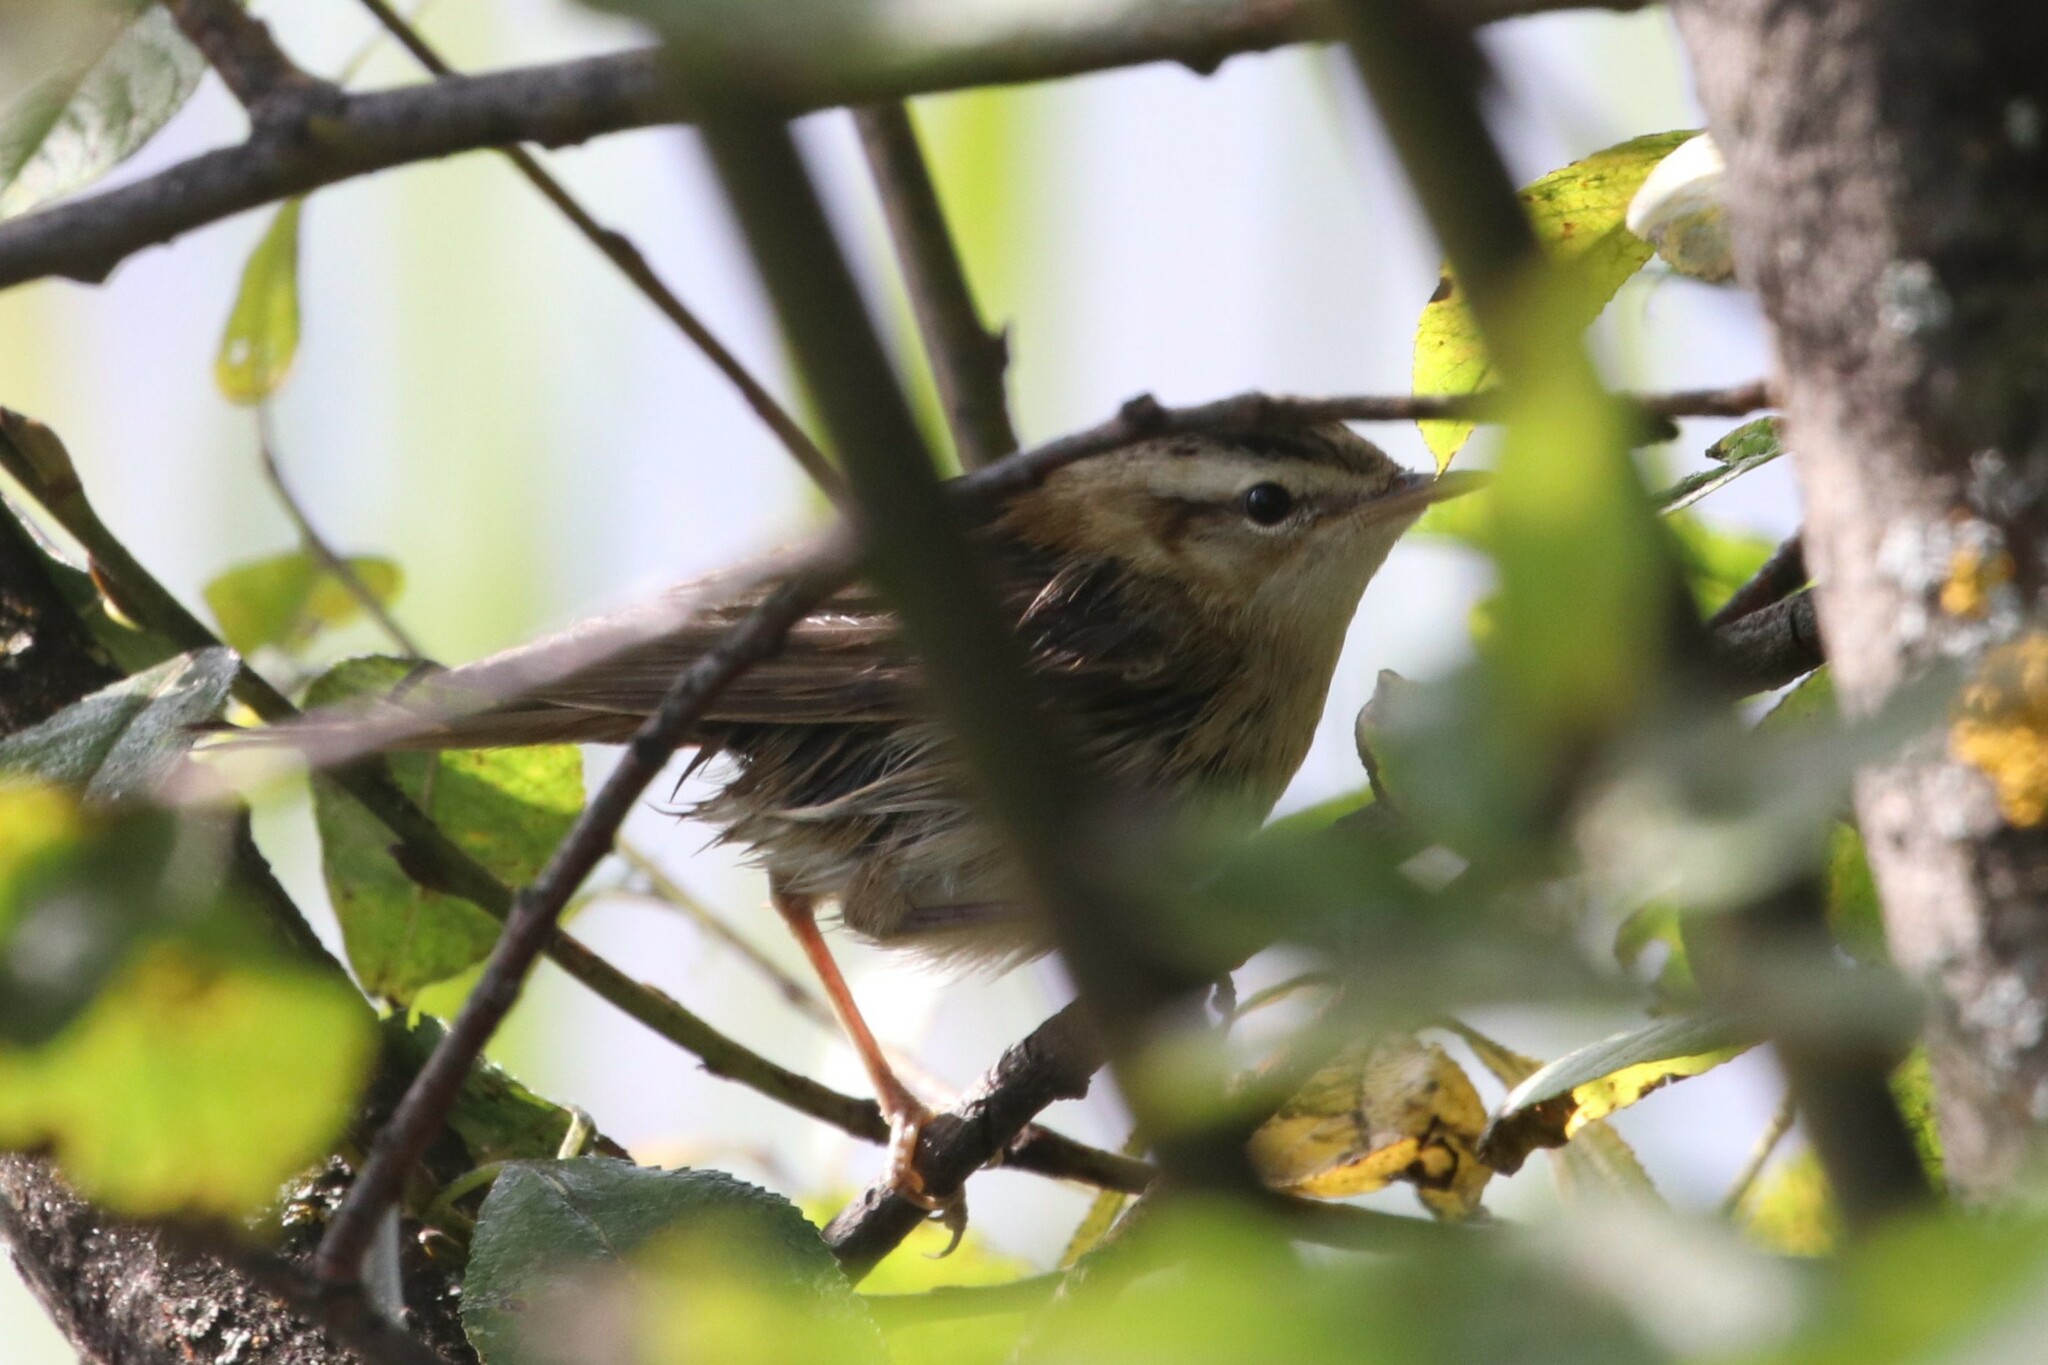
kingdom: Animalia
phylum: Chordata
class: Aves
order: Passeriformes
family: Acrocephalidae
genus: Acrocephalus
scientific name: Acrocephalus schoenobaenus
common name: Sedge warbler
